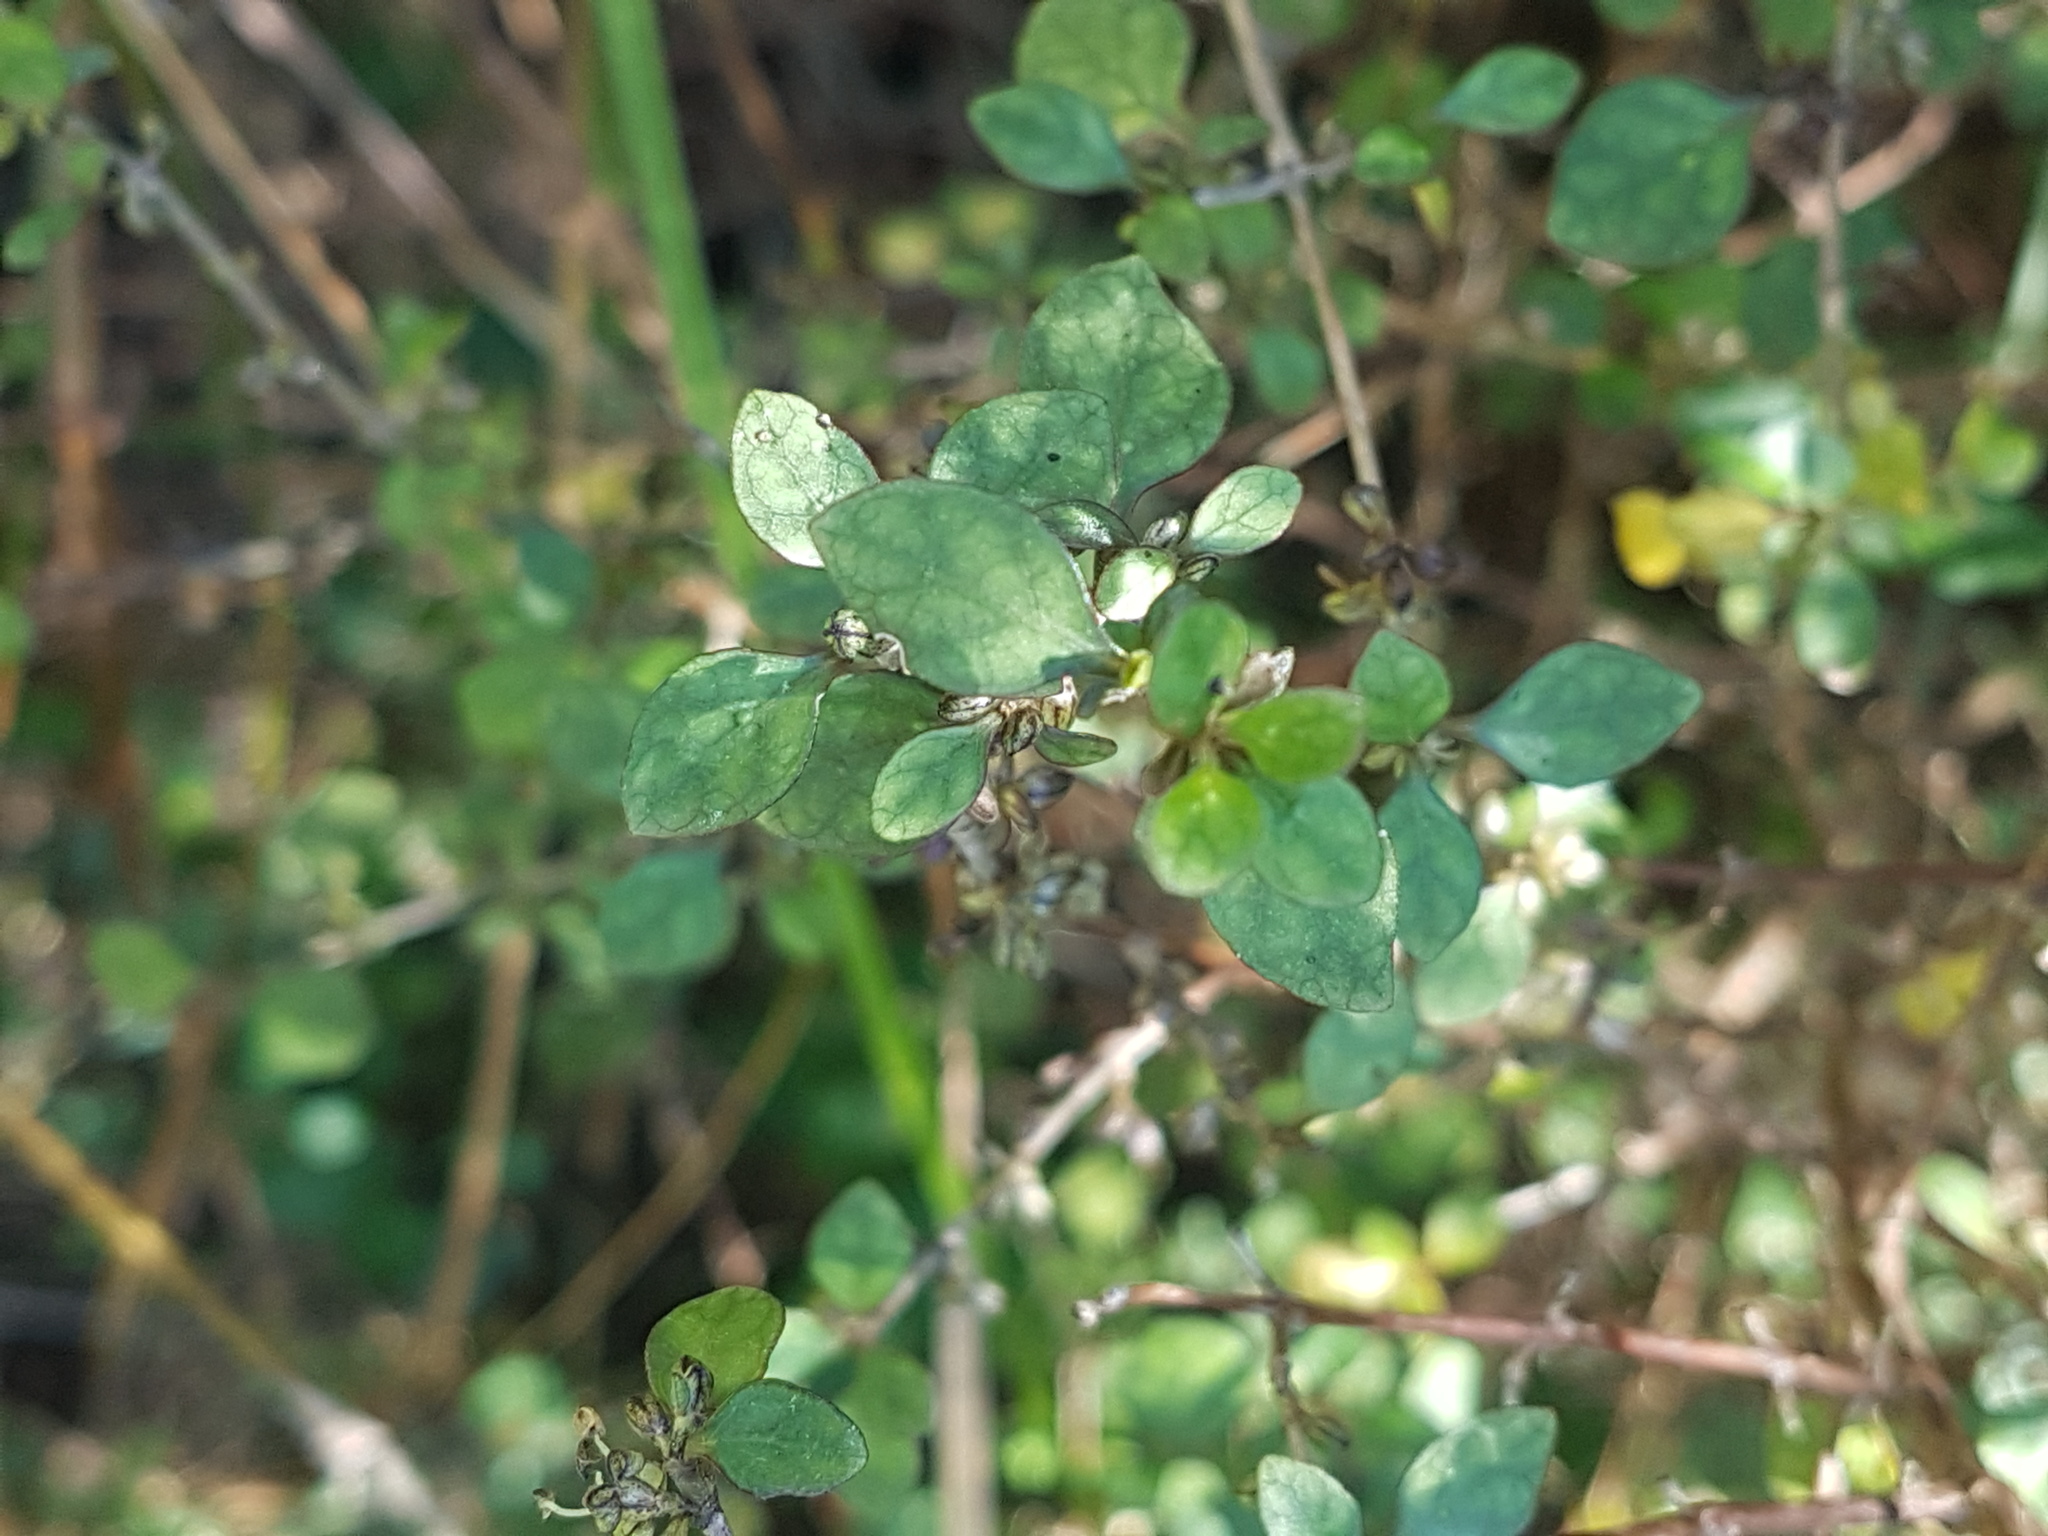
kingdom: Plantae
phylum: Tracheophyta
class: Magnoliopsida
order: Gentianales
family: Rubiaceae
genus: Coprosma
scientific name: Coprosma tenuicaulis
